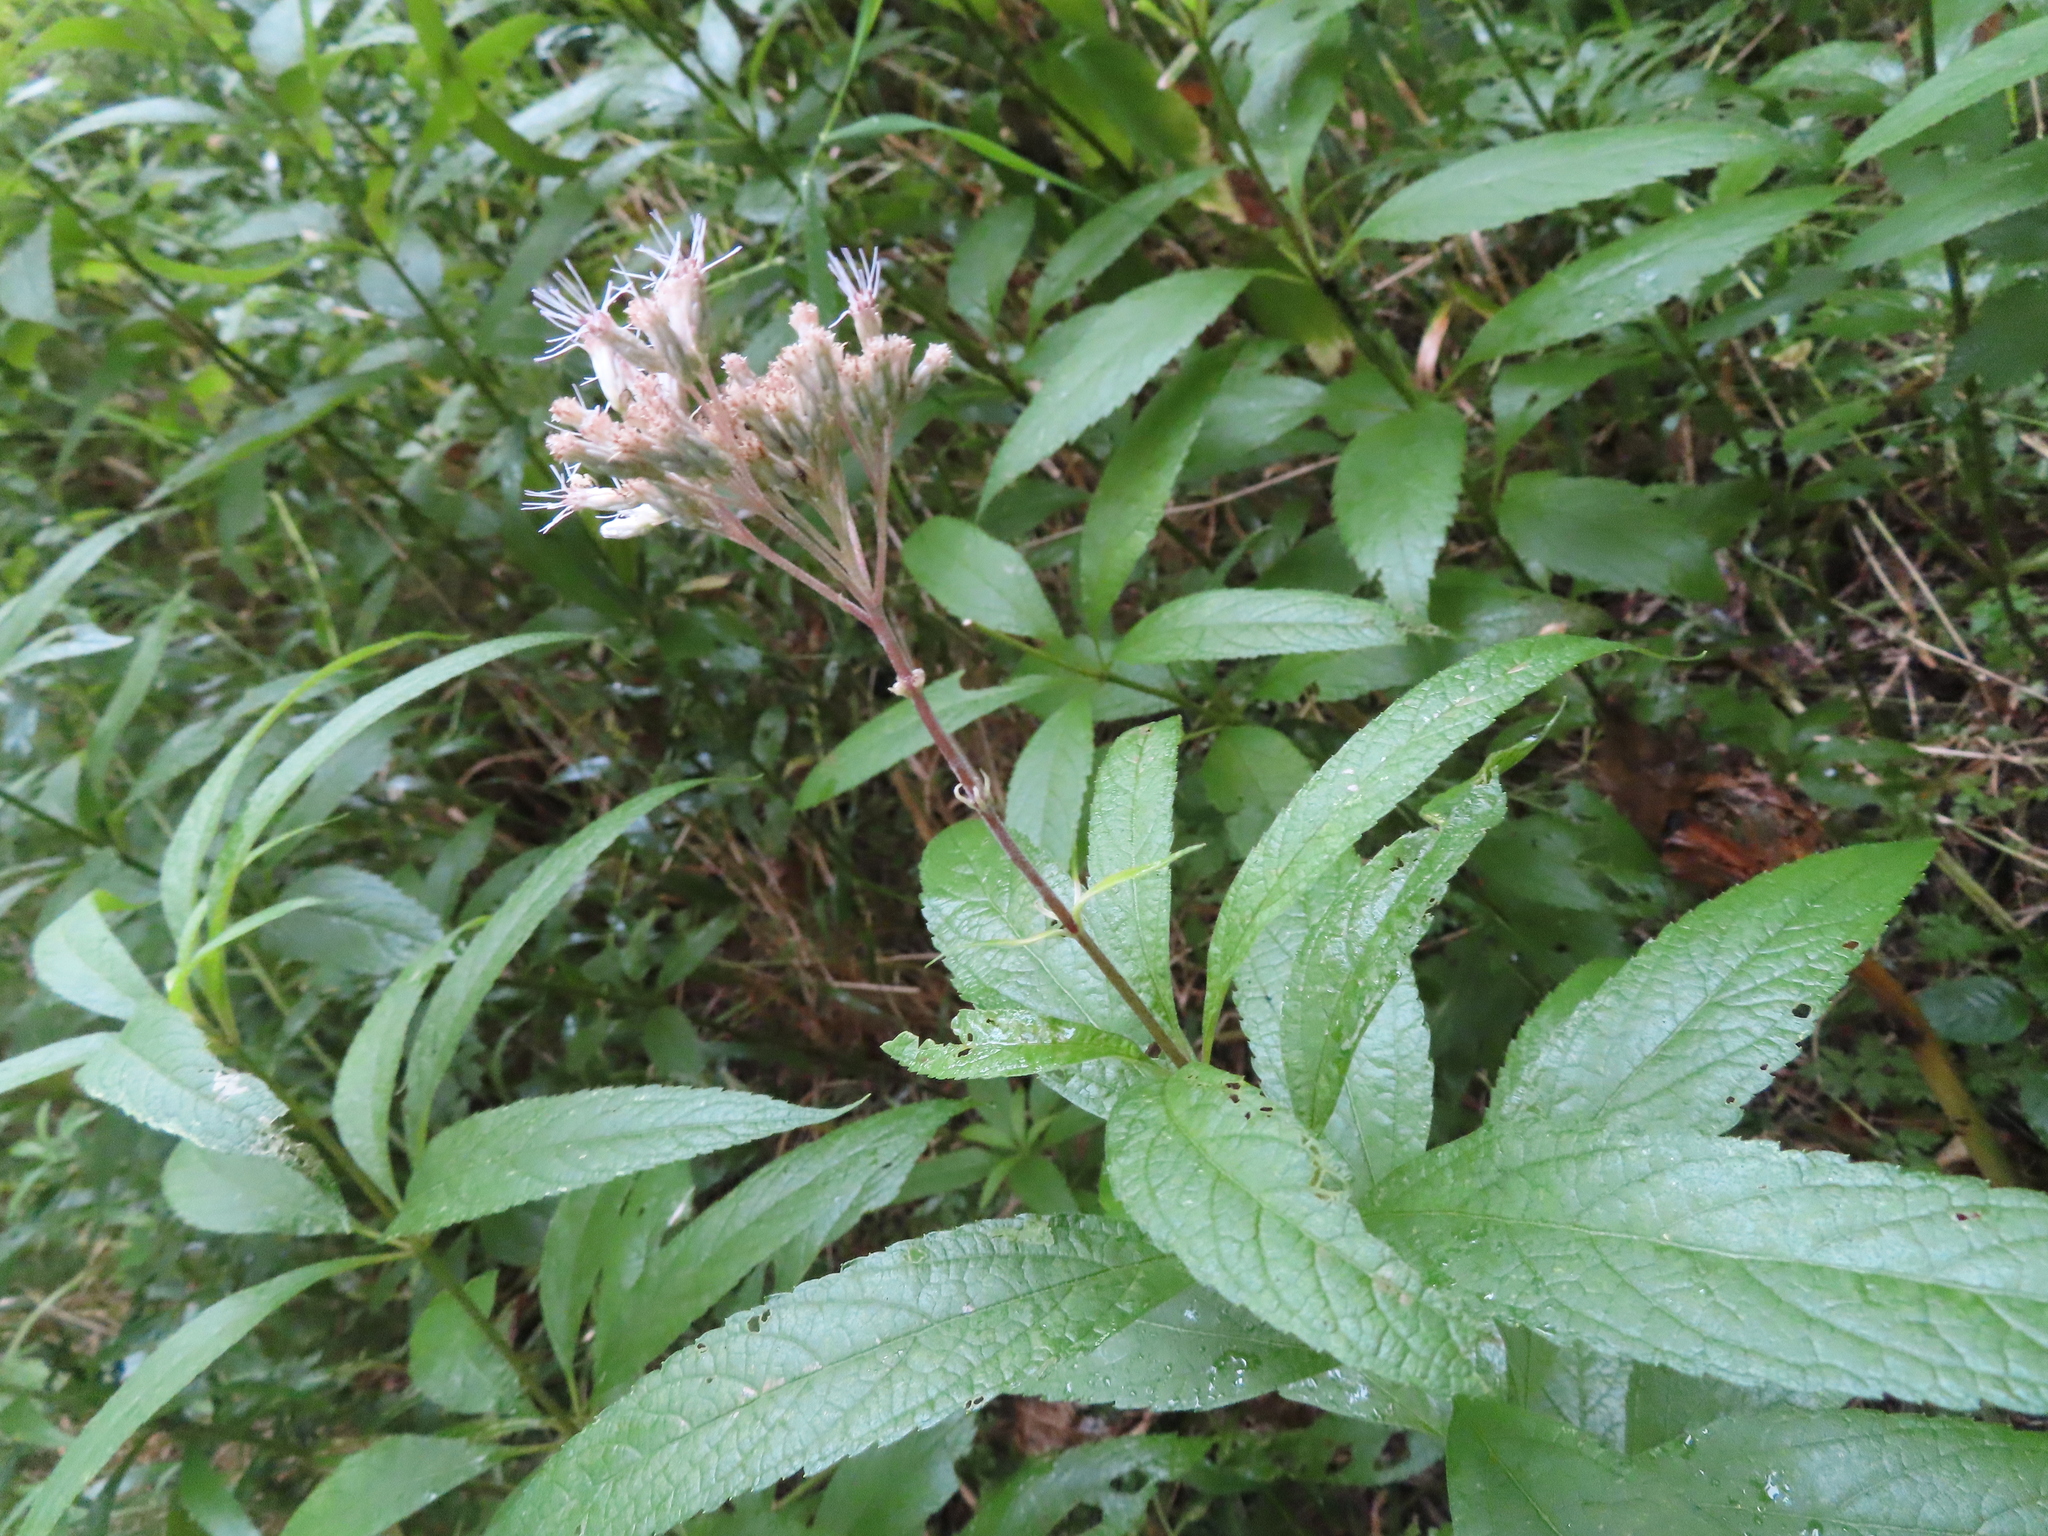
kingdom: Plantae
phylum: Tracheophyta
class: Magnoliopsida
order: Asterales
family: Asteraceae
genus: Eutrochium
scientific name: Eutrochium maculatum
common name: Spotted joe pye weed
